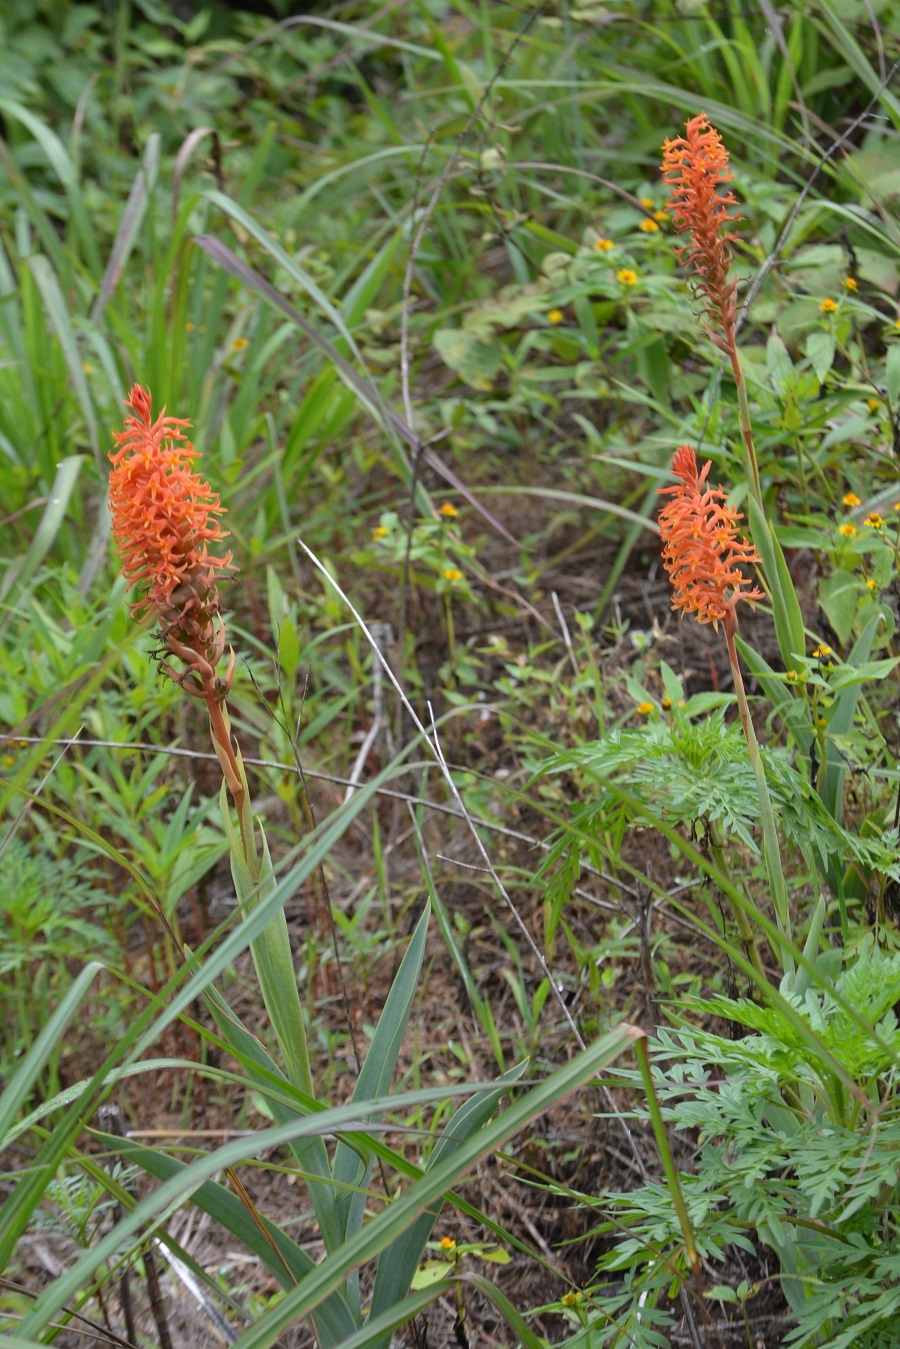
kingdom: Plantae
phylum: Tracheophyta
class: Liliopsida
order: Asparagales
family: Orchidaceae
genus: Dichromanthus
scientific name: Dichromanthus cinnabarinus
